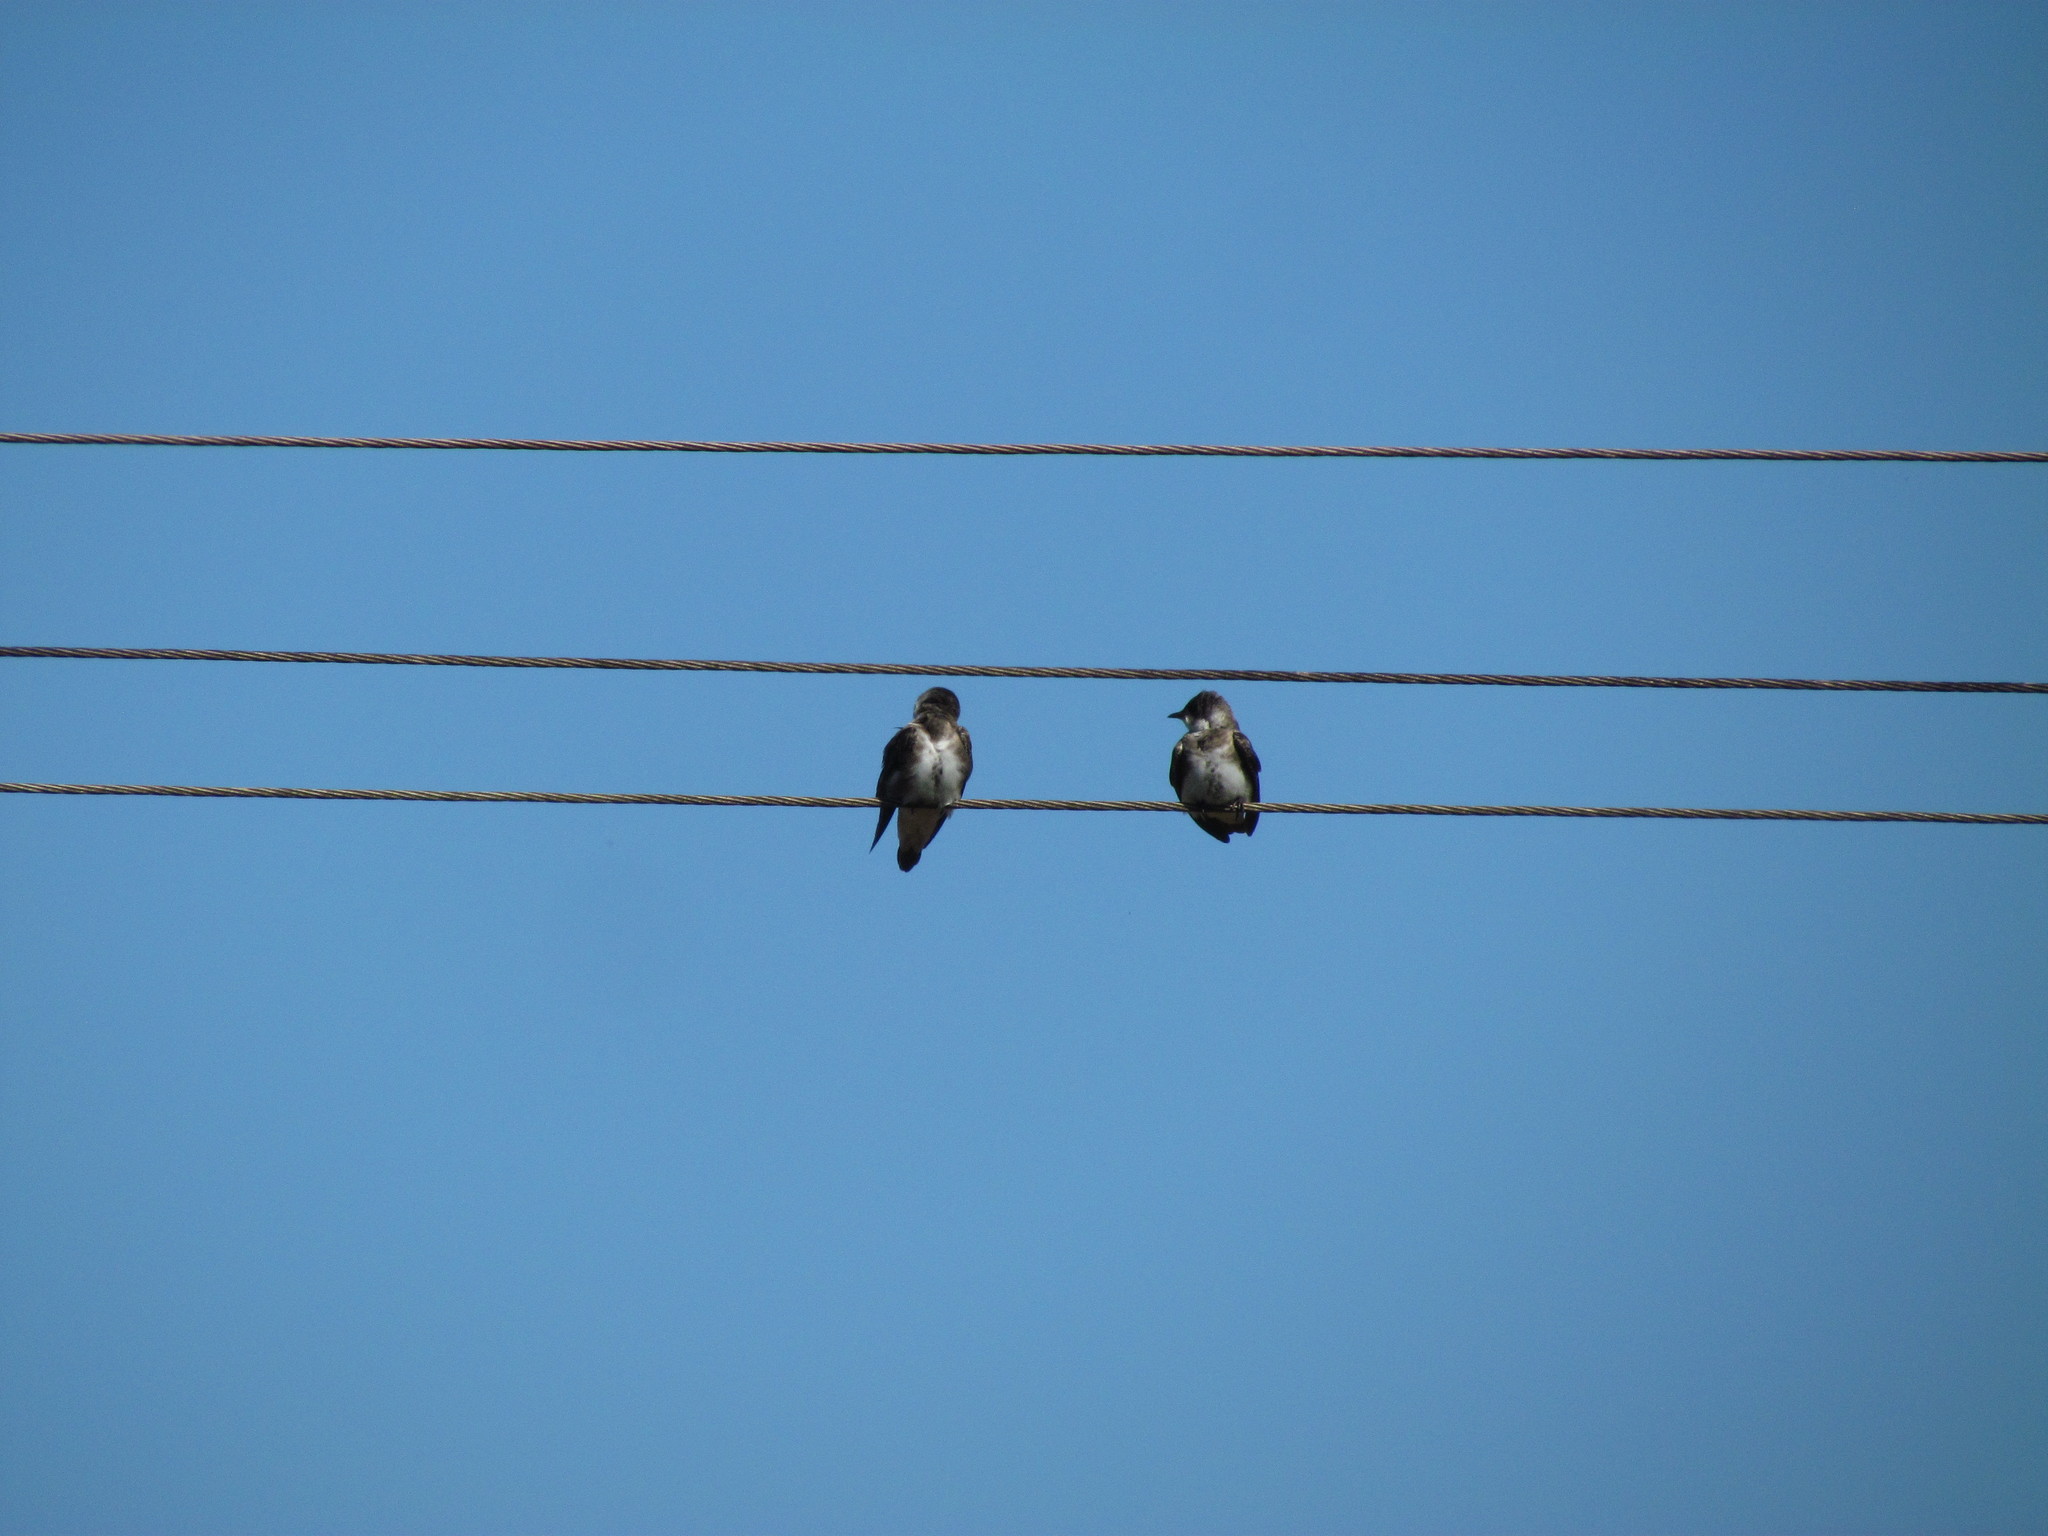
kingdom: Animalia
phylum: Chordata
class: Aves
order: Passeriformes
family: Hirundinidae
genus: Progne
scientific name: Progne tapera
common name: Brown-chested martin
